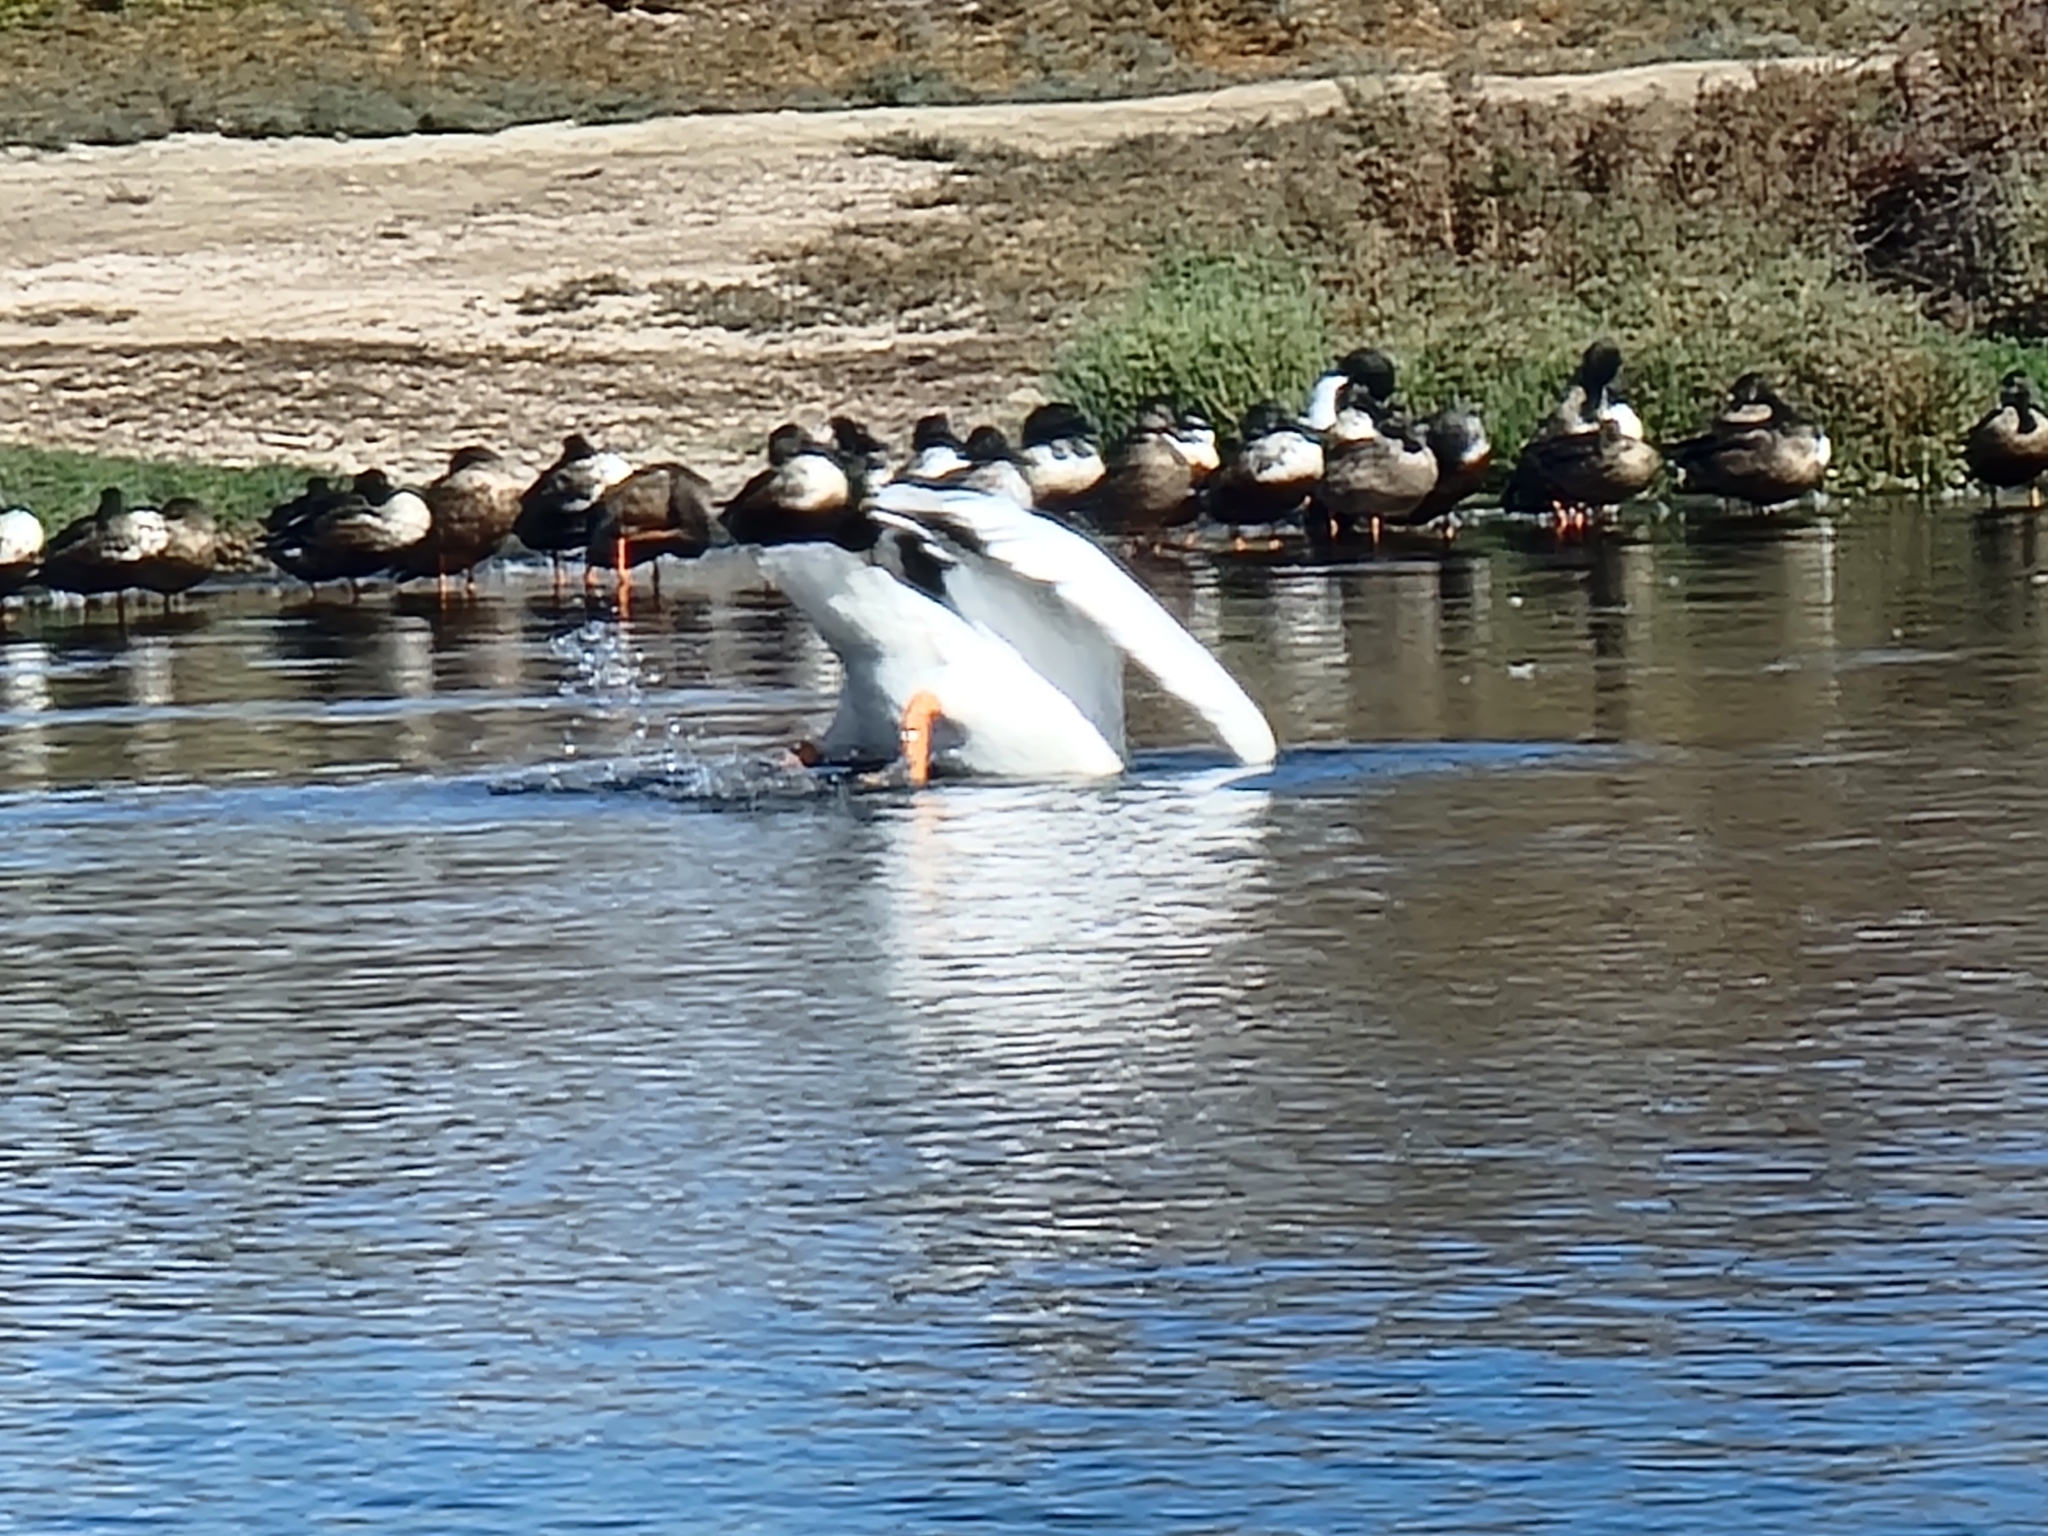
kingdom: Animalia
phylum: Chordata
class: Aves
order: Pelecaniformes
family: Pelecanidae
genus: Pelecanus
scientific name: Pelecanus erythrorhynchos
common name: American white pelican
